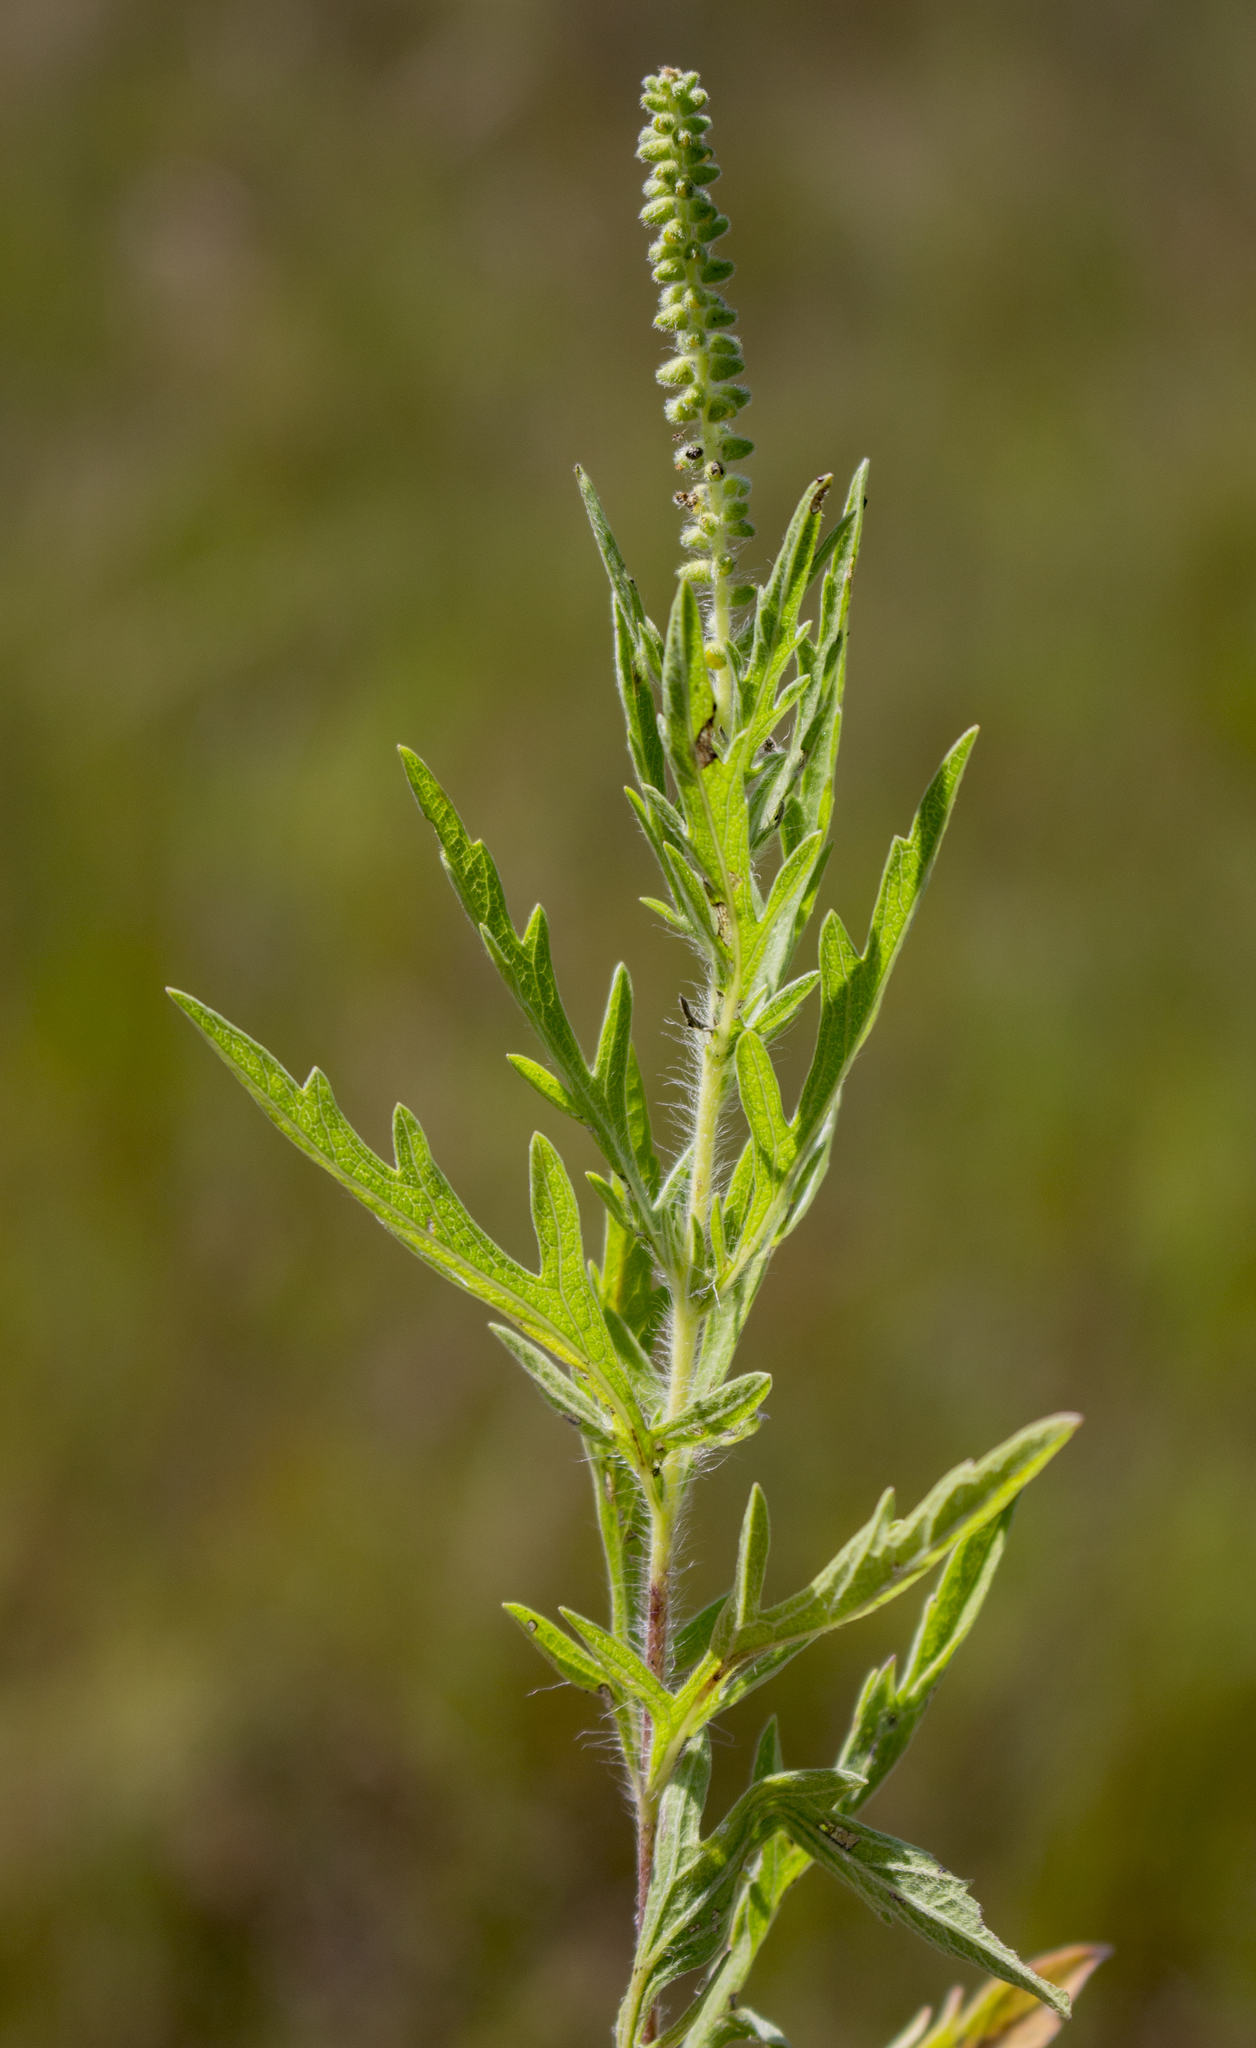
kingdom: Plantae
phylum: Tracheophyta
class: Magnoliopsida
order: Asterales
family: Asteraceae
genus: Ambrosia
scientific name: Ambrosia psilostachya
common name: Perennial ragweed
